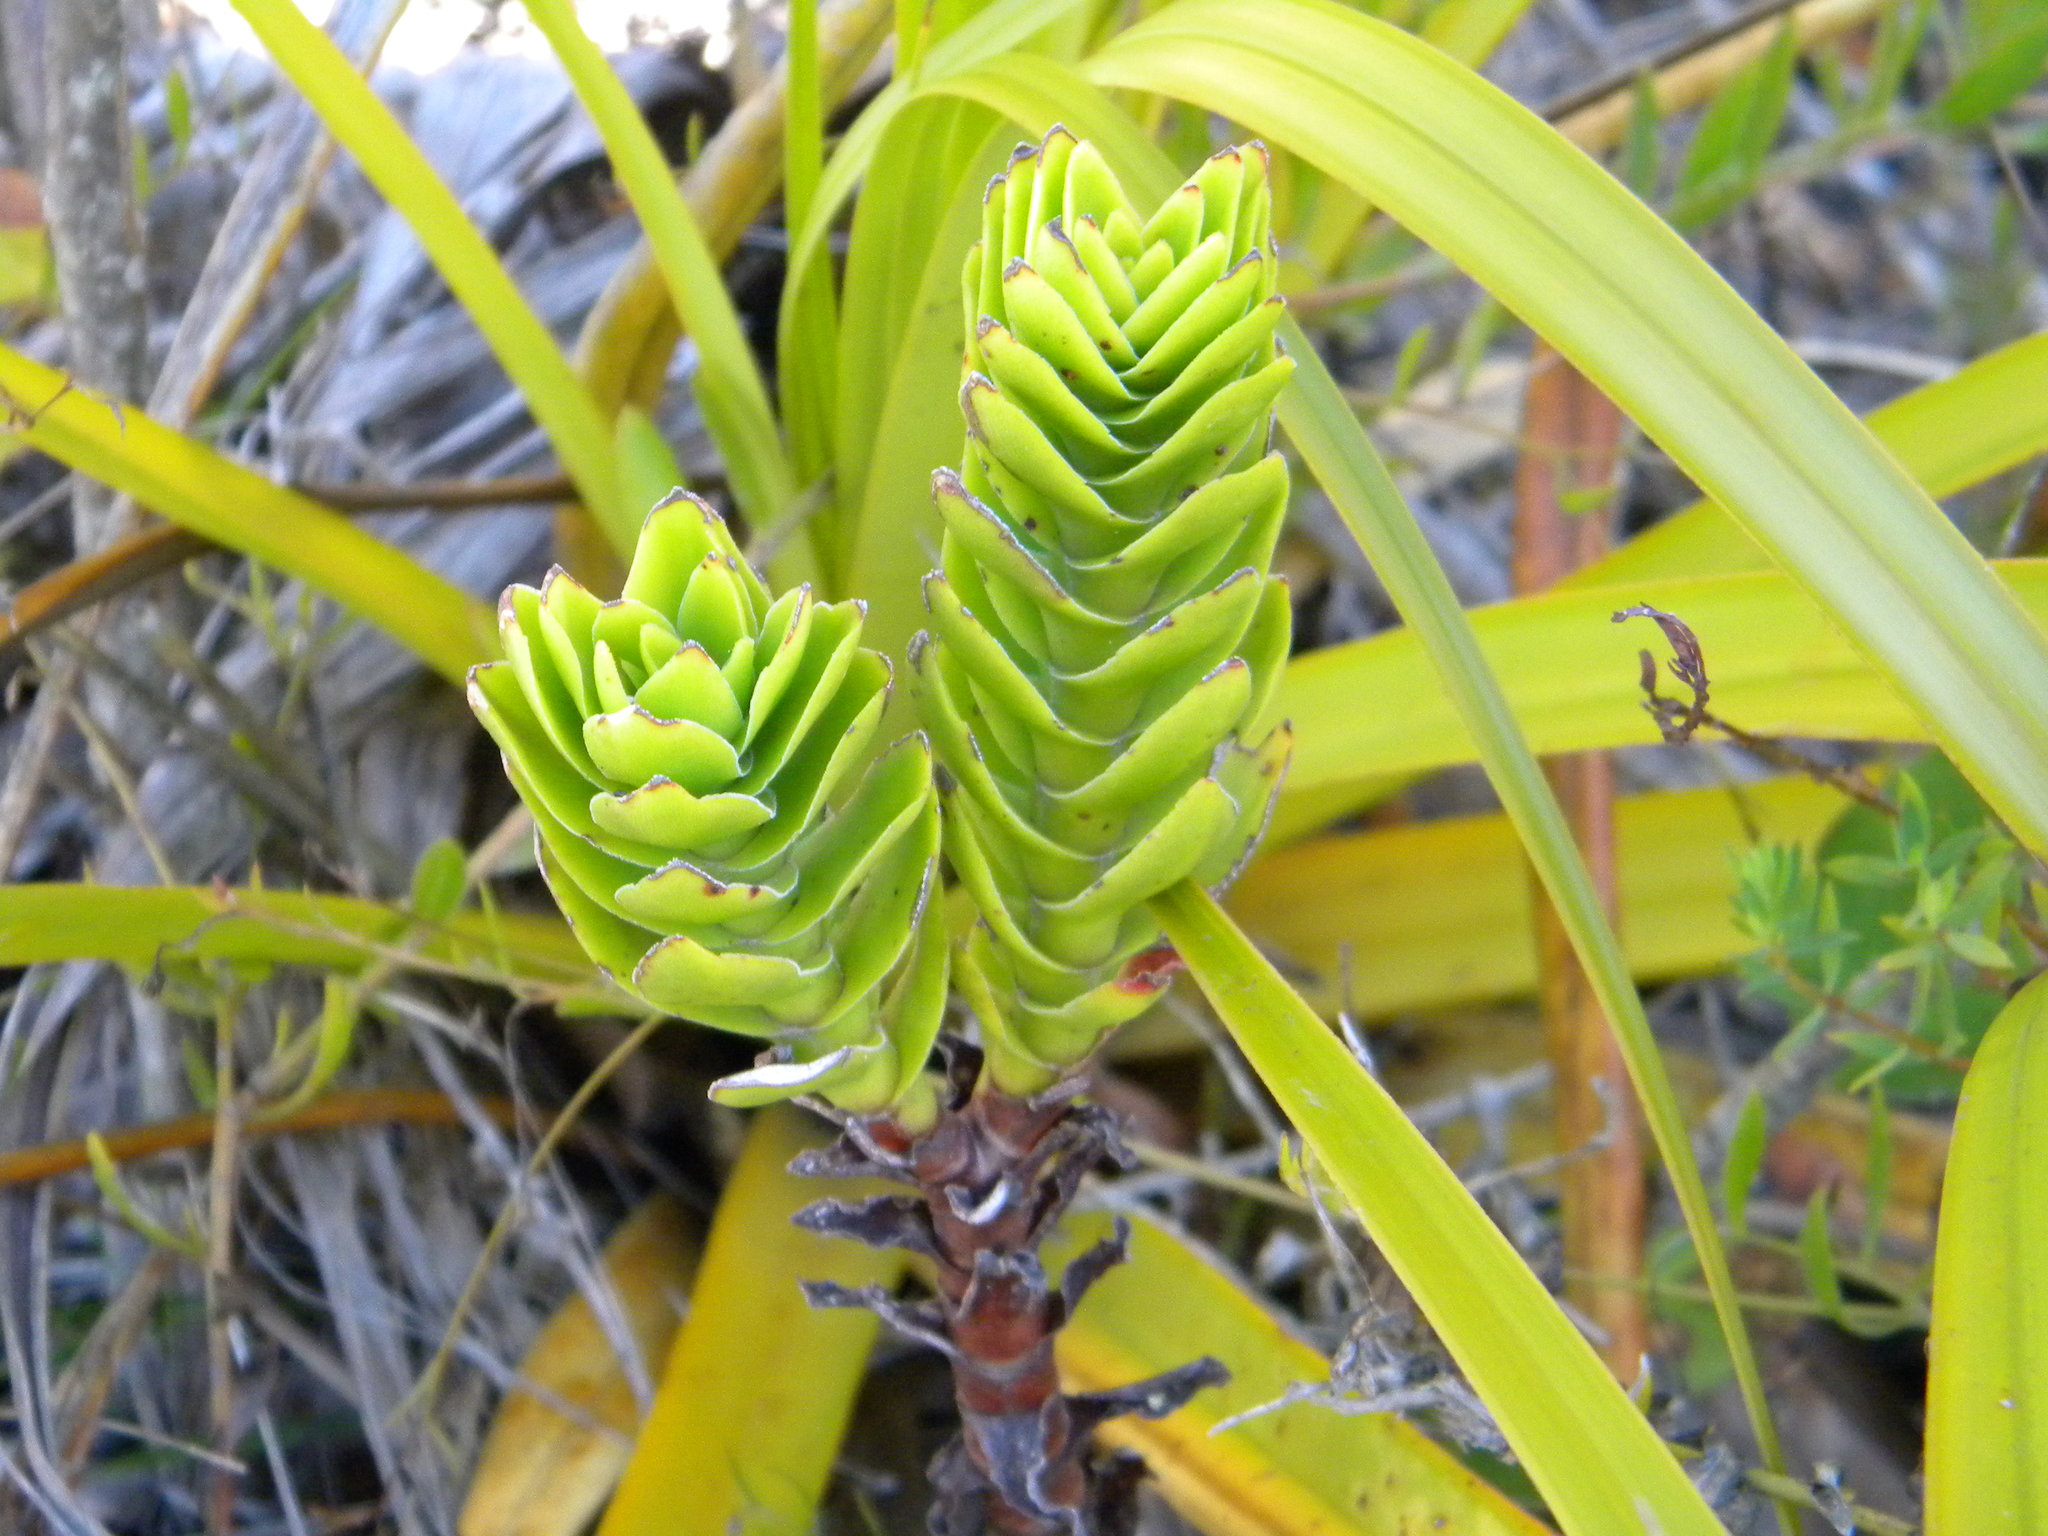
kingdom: Plantae
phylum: Tracheophyta
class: Magnoliopsida
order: Saxifragales
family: Crassulaceae
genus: Crassula
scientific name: Crassula coccinea
